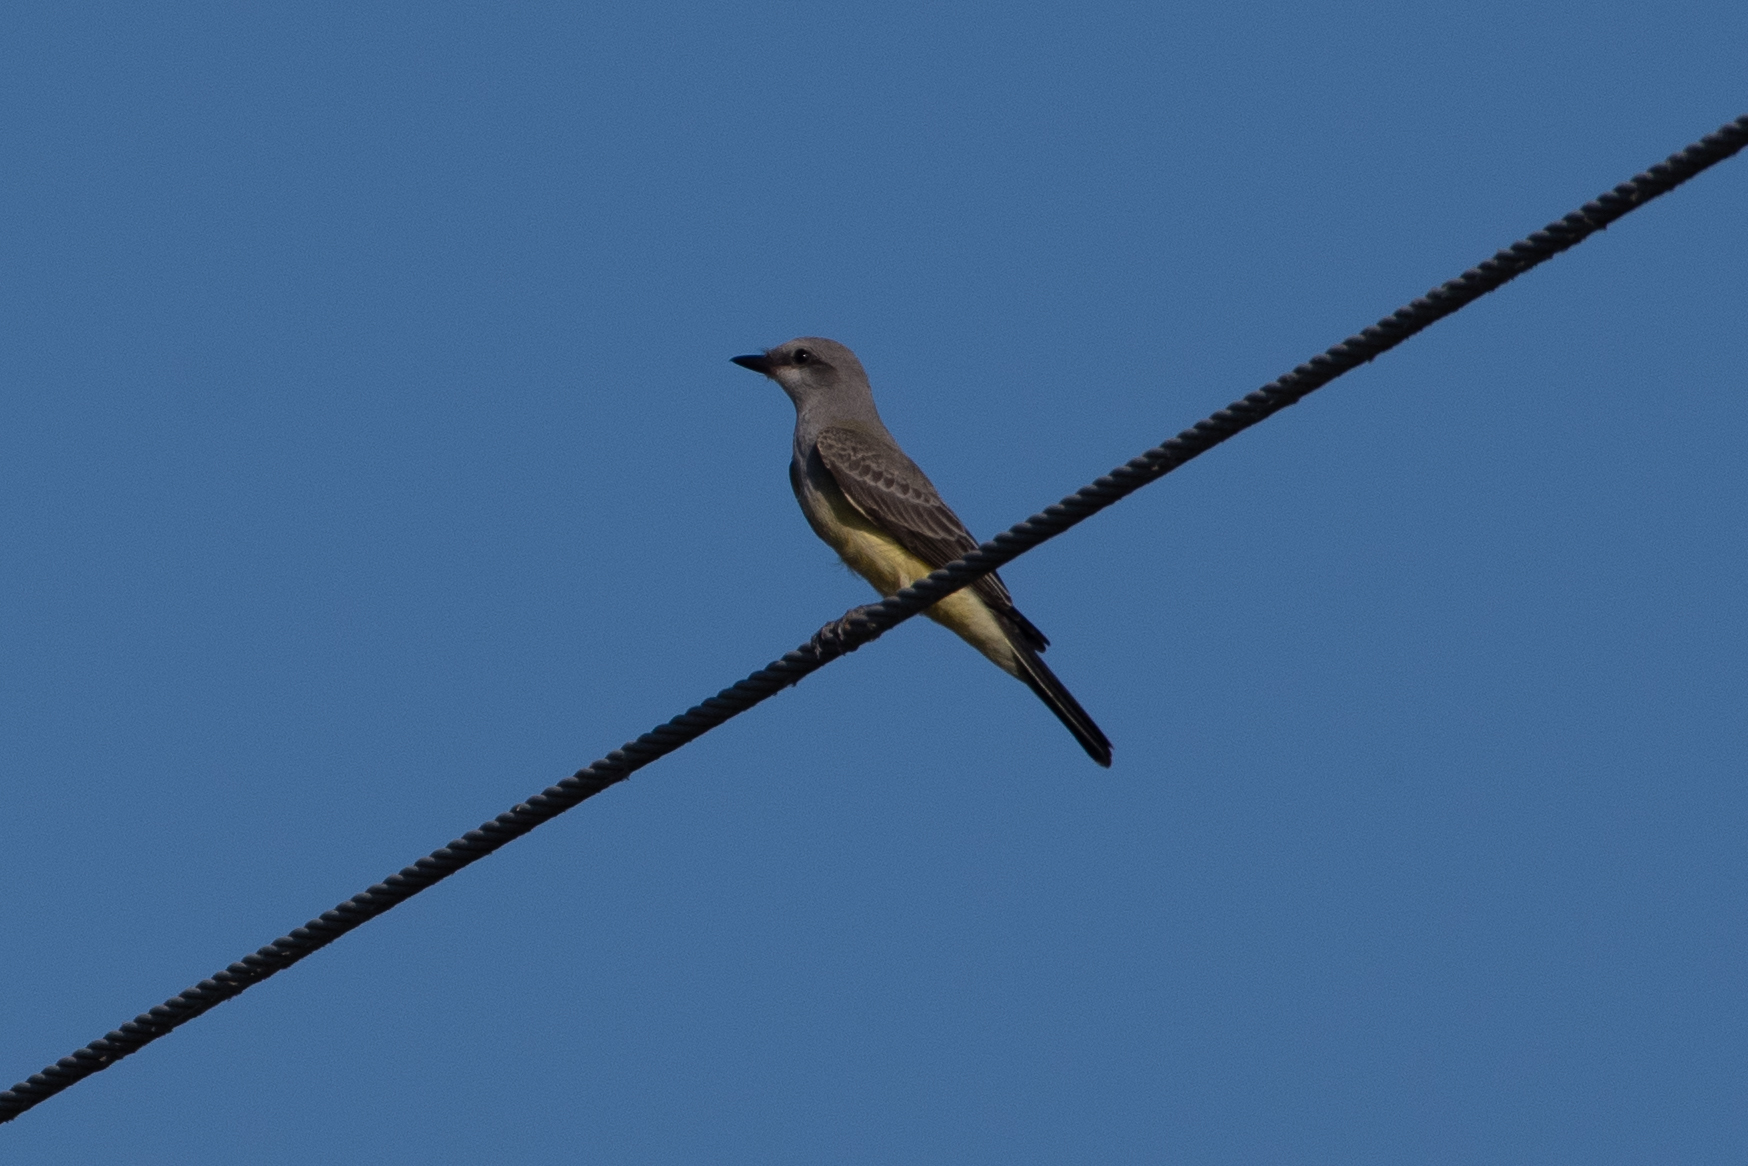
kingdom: Animalia
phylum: Chordata
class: Aves
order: Passeriformes
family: Tyrannidae
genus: Tyrannus
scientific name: Tyrannus verticalis
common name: Western kingbird
